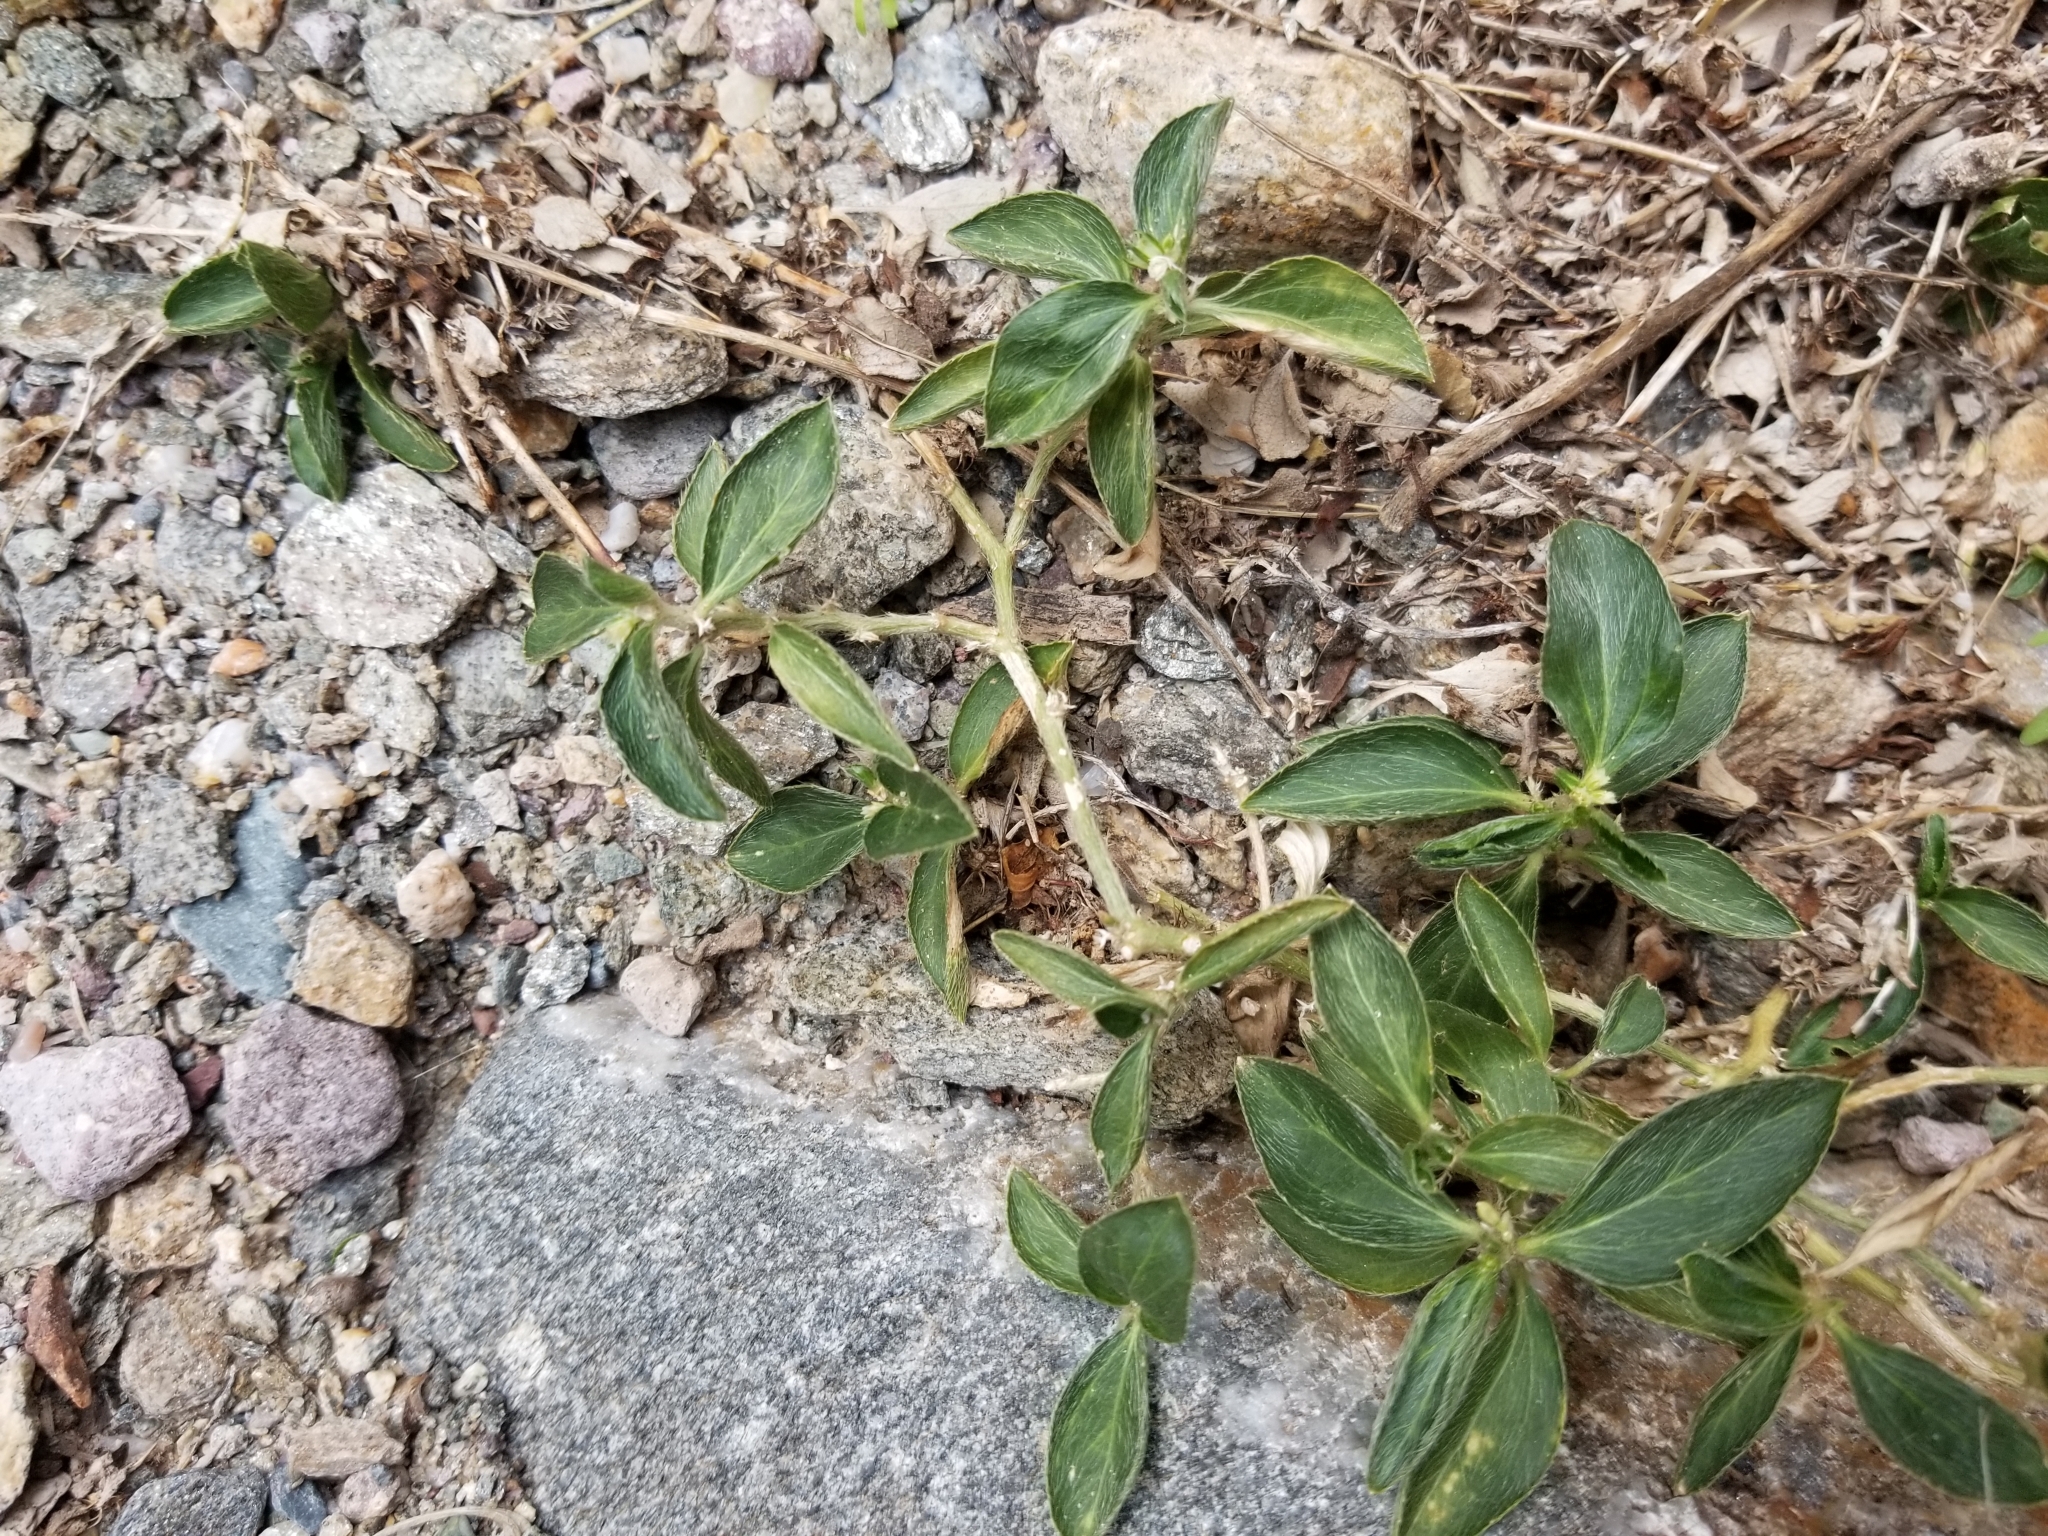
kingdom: Plantae
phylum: Tracheophyta
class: Magnoliopsida
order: Malpighiales
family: Euphorbiaceae
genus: Ditaxis
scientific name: Ditaxis serrata
